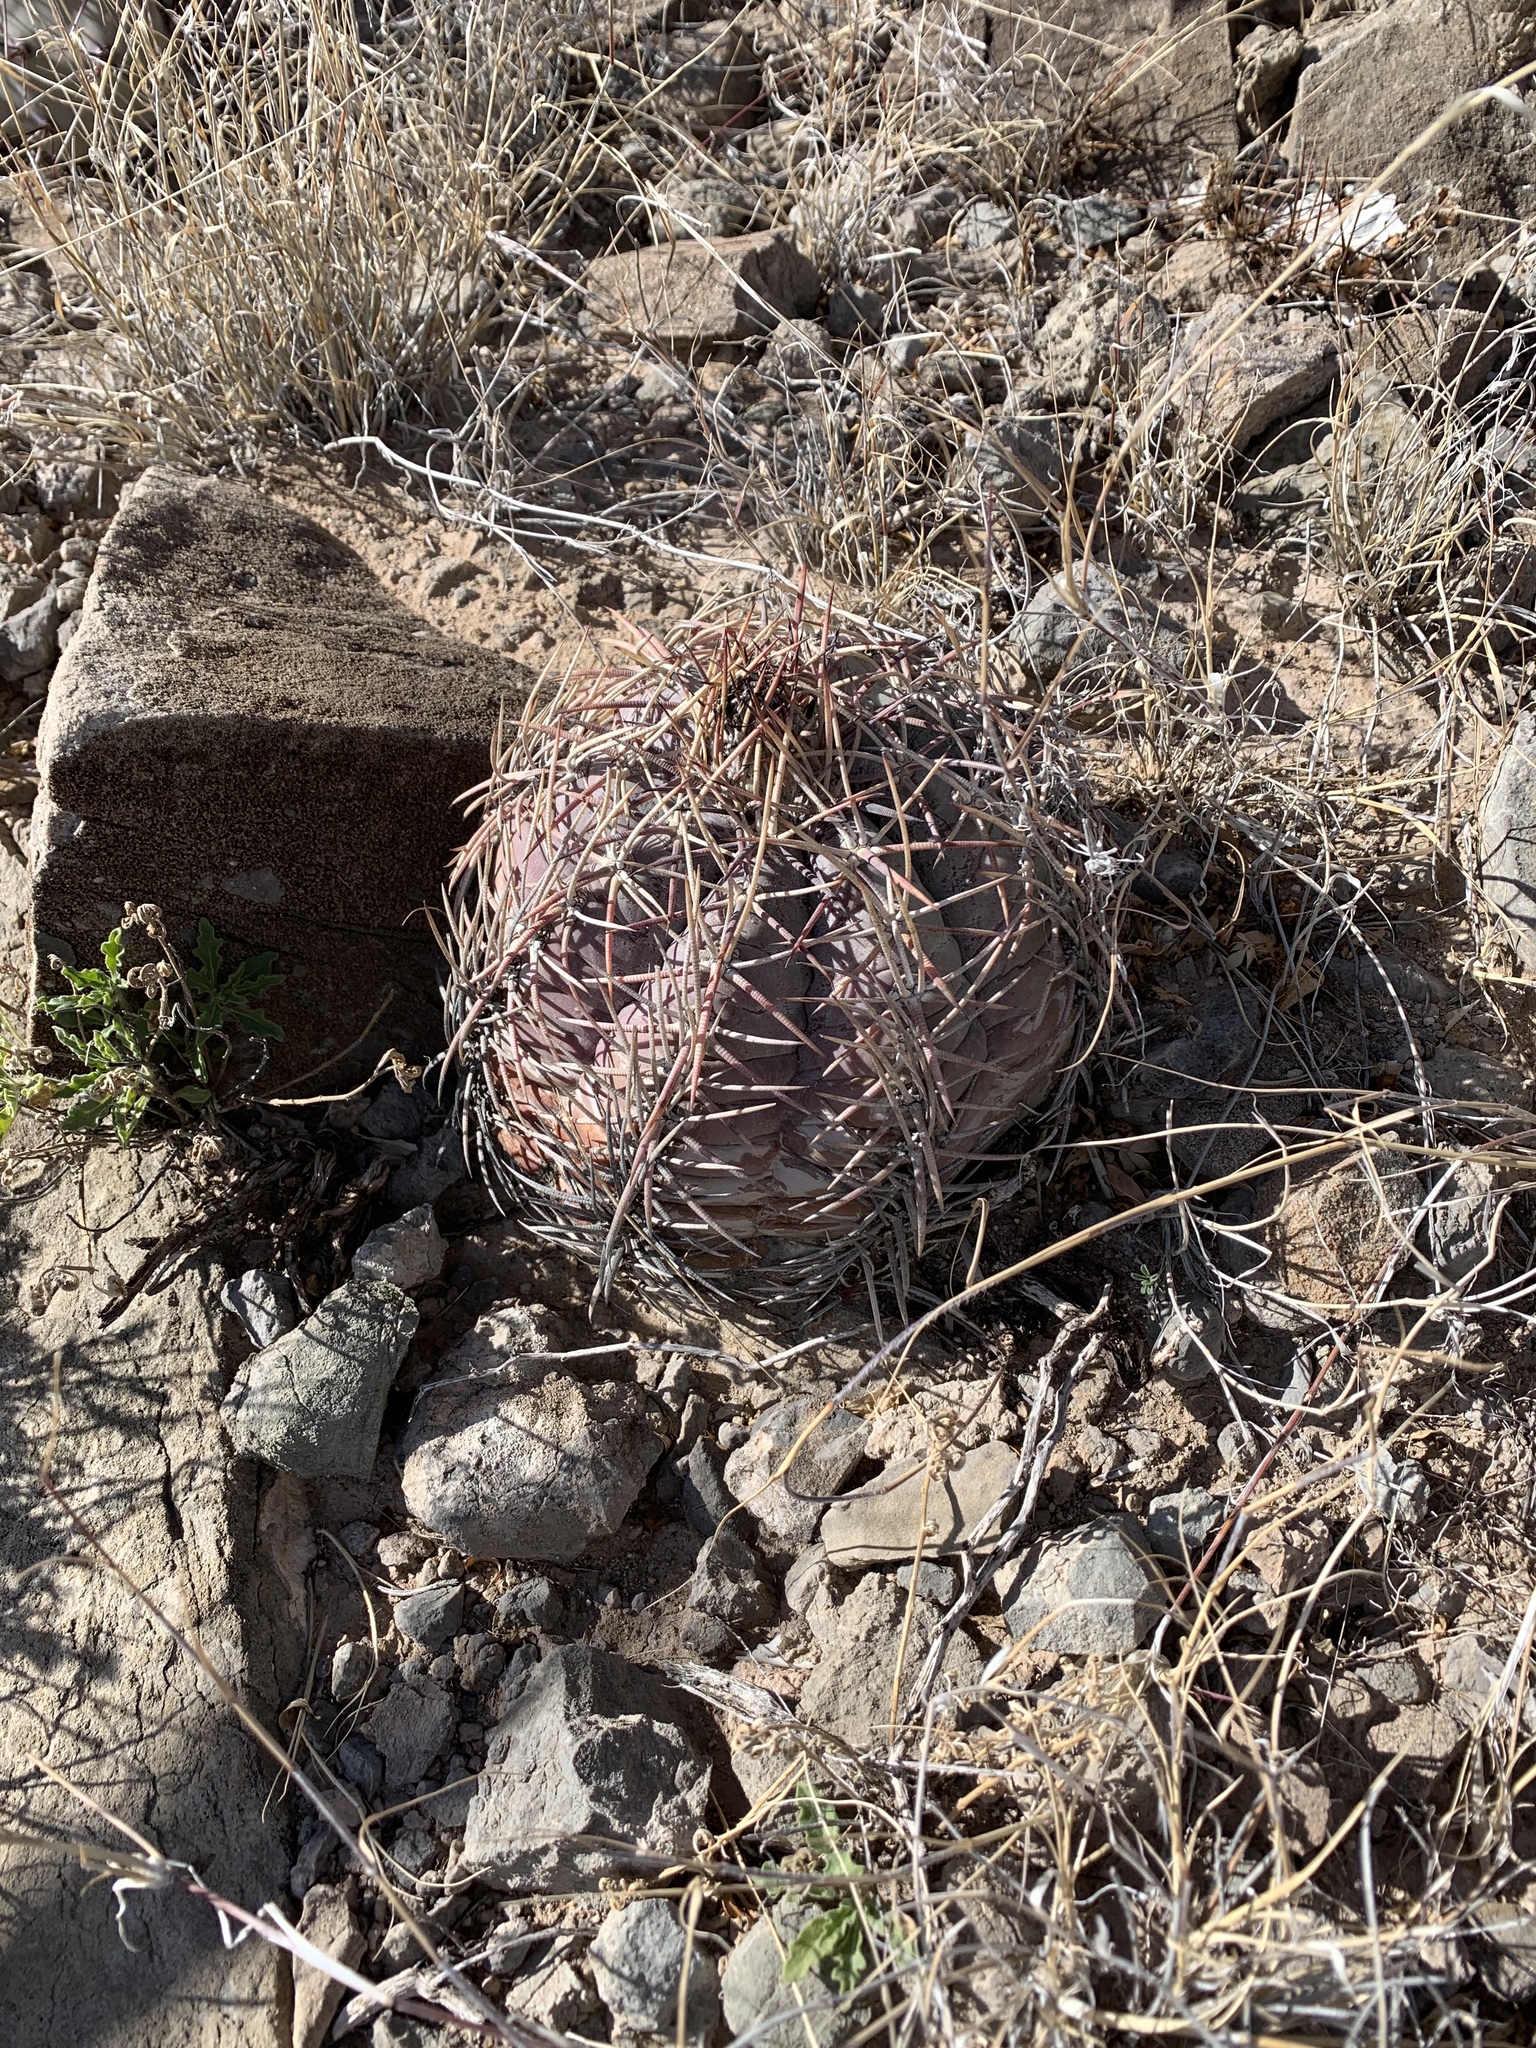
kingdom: Plantae
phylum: Tracheophyta
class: Magnoliopsida
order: Caryophyllales
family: Cactaceae
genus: Echinocactus
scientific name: Echinocactus horizonthalonius
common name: Devilshead
